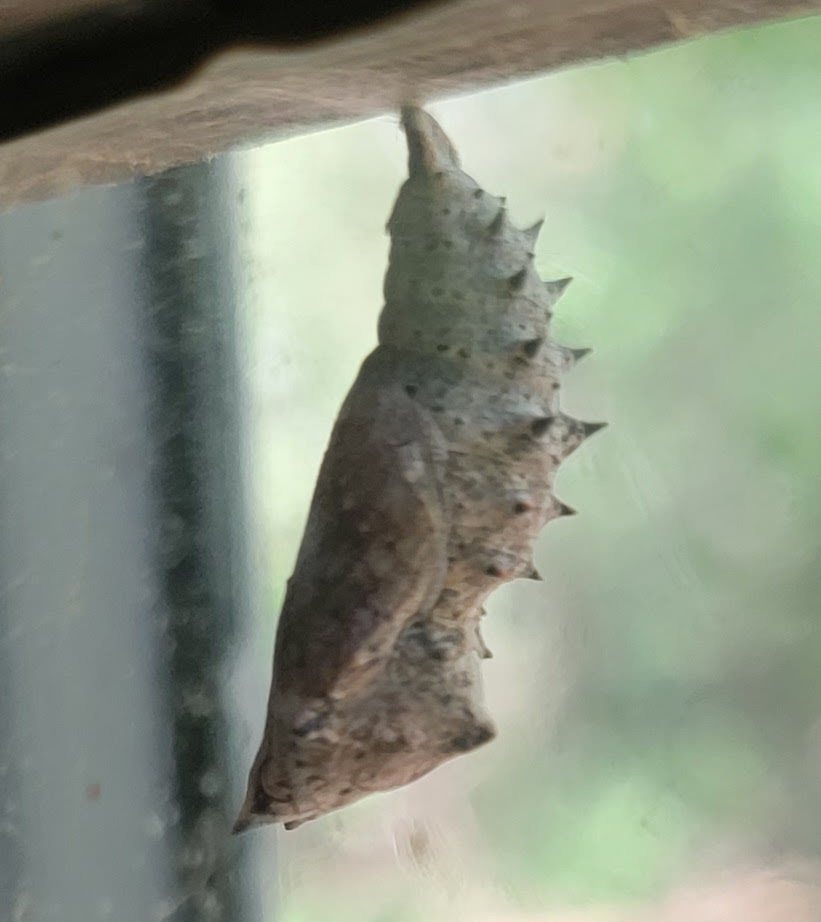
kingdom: Animalia
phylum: Arthropoda
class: Insecta
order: Lepidoptera
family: Nymphalidae
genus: Nymphalis
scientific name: Nymphalis antiopa
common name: Camberwell beauty
